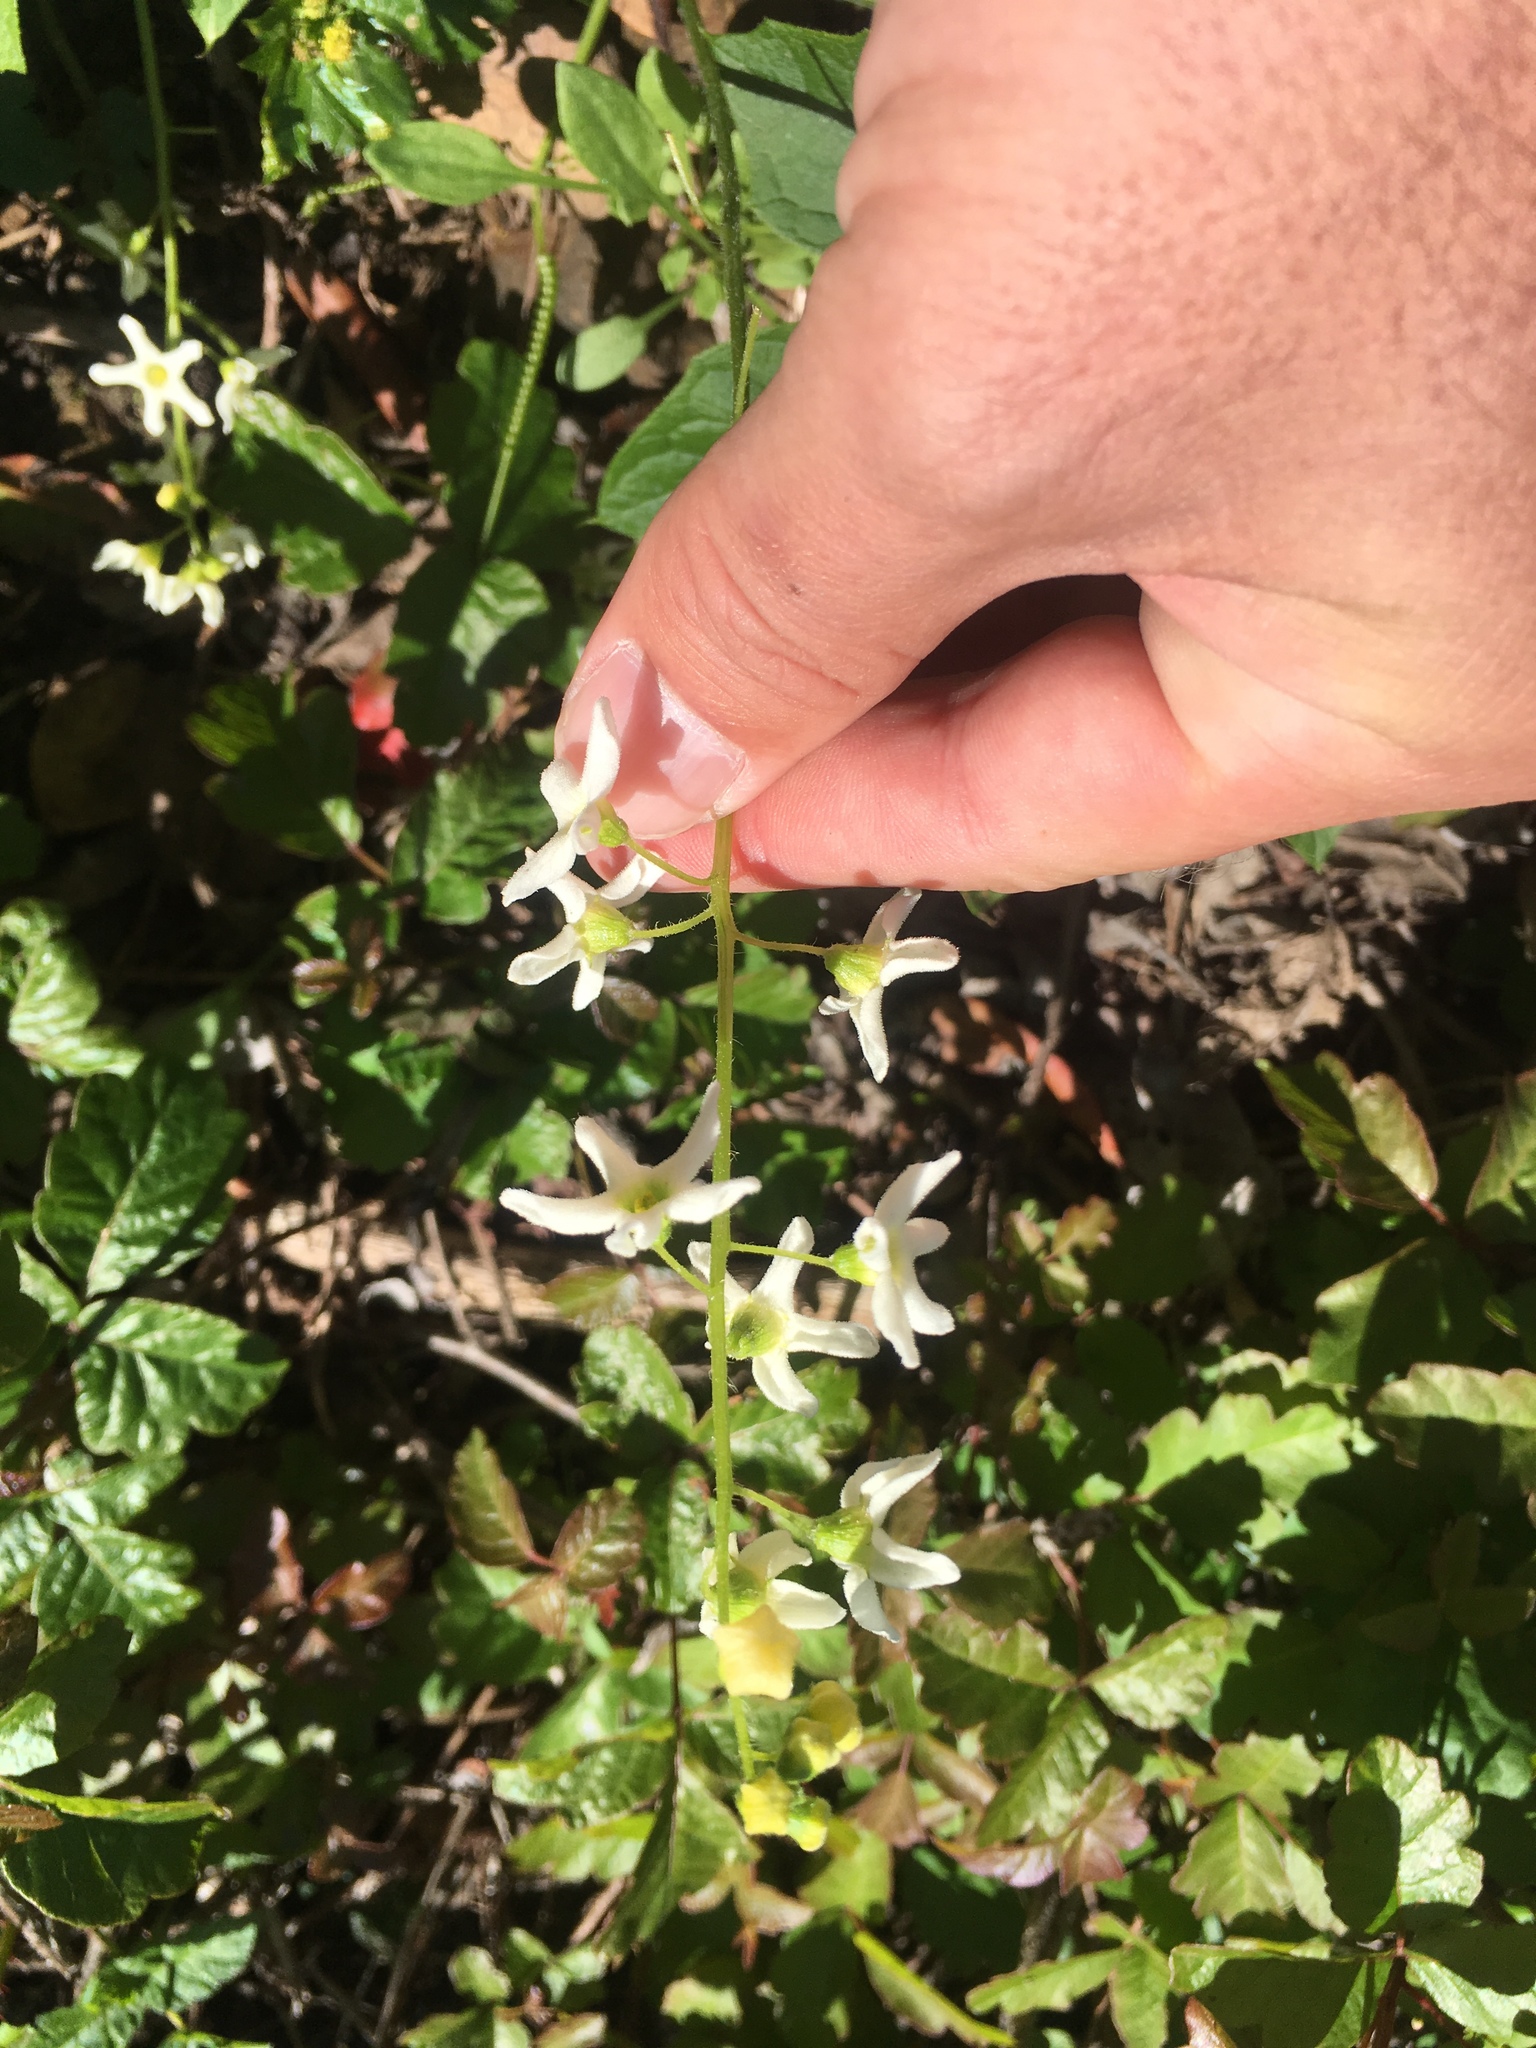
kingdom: Plantae
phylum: Tracheophyta
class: Magnoliopsida
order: Cucurbitales
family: Cucurbitaceae
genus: Marah
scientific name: Marah oregana
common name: Coastal manroot
